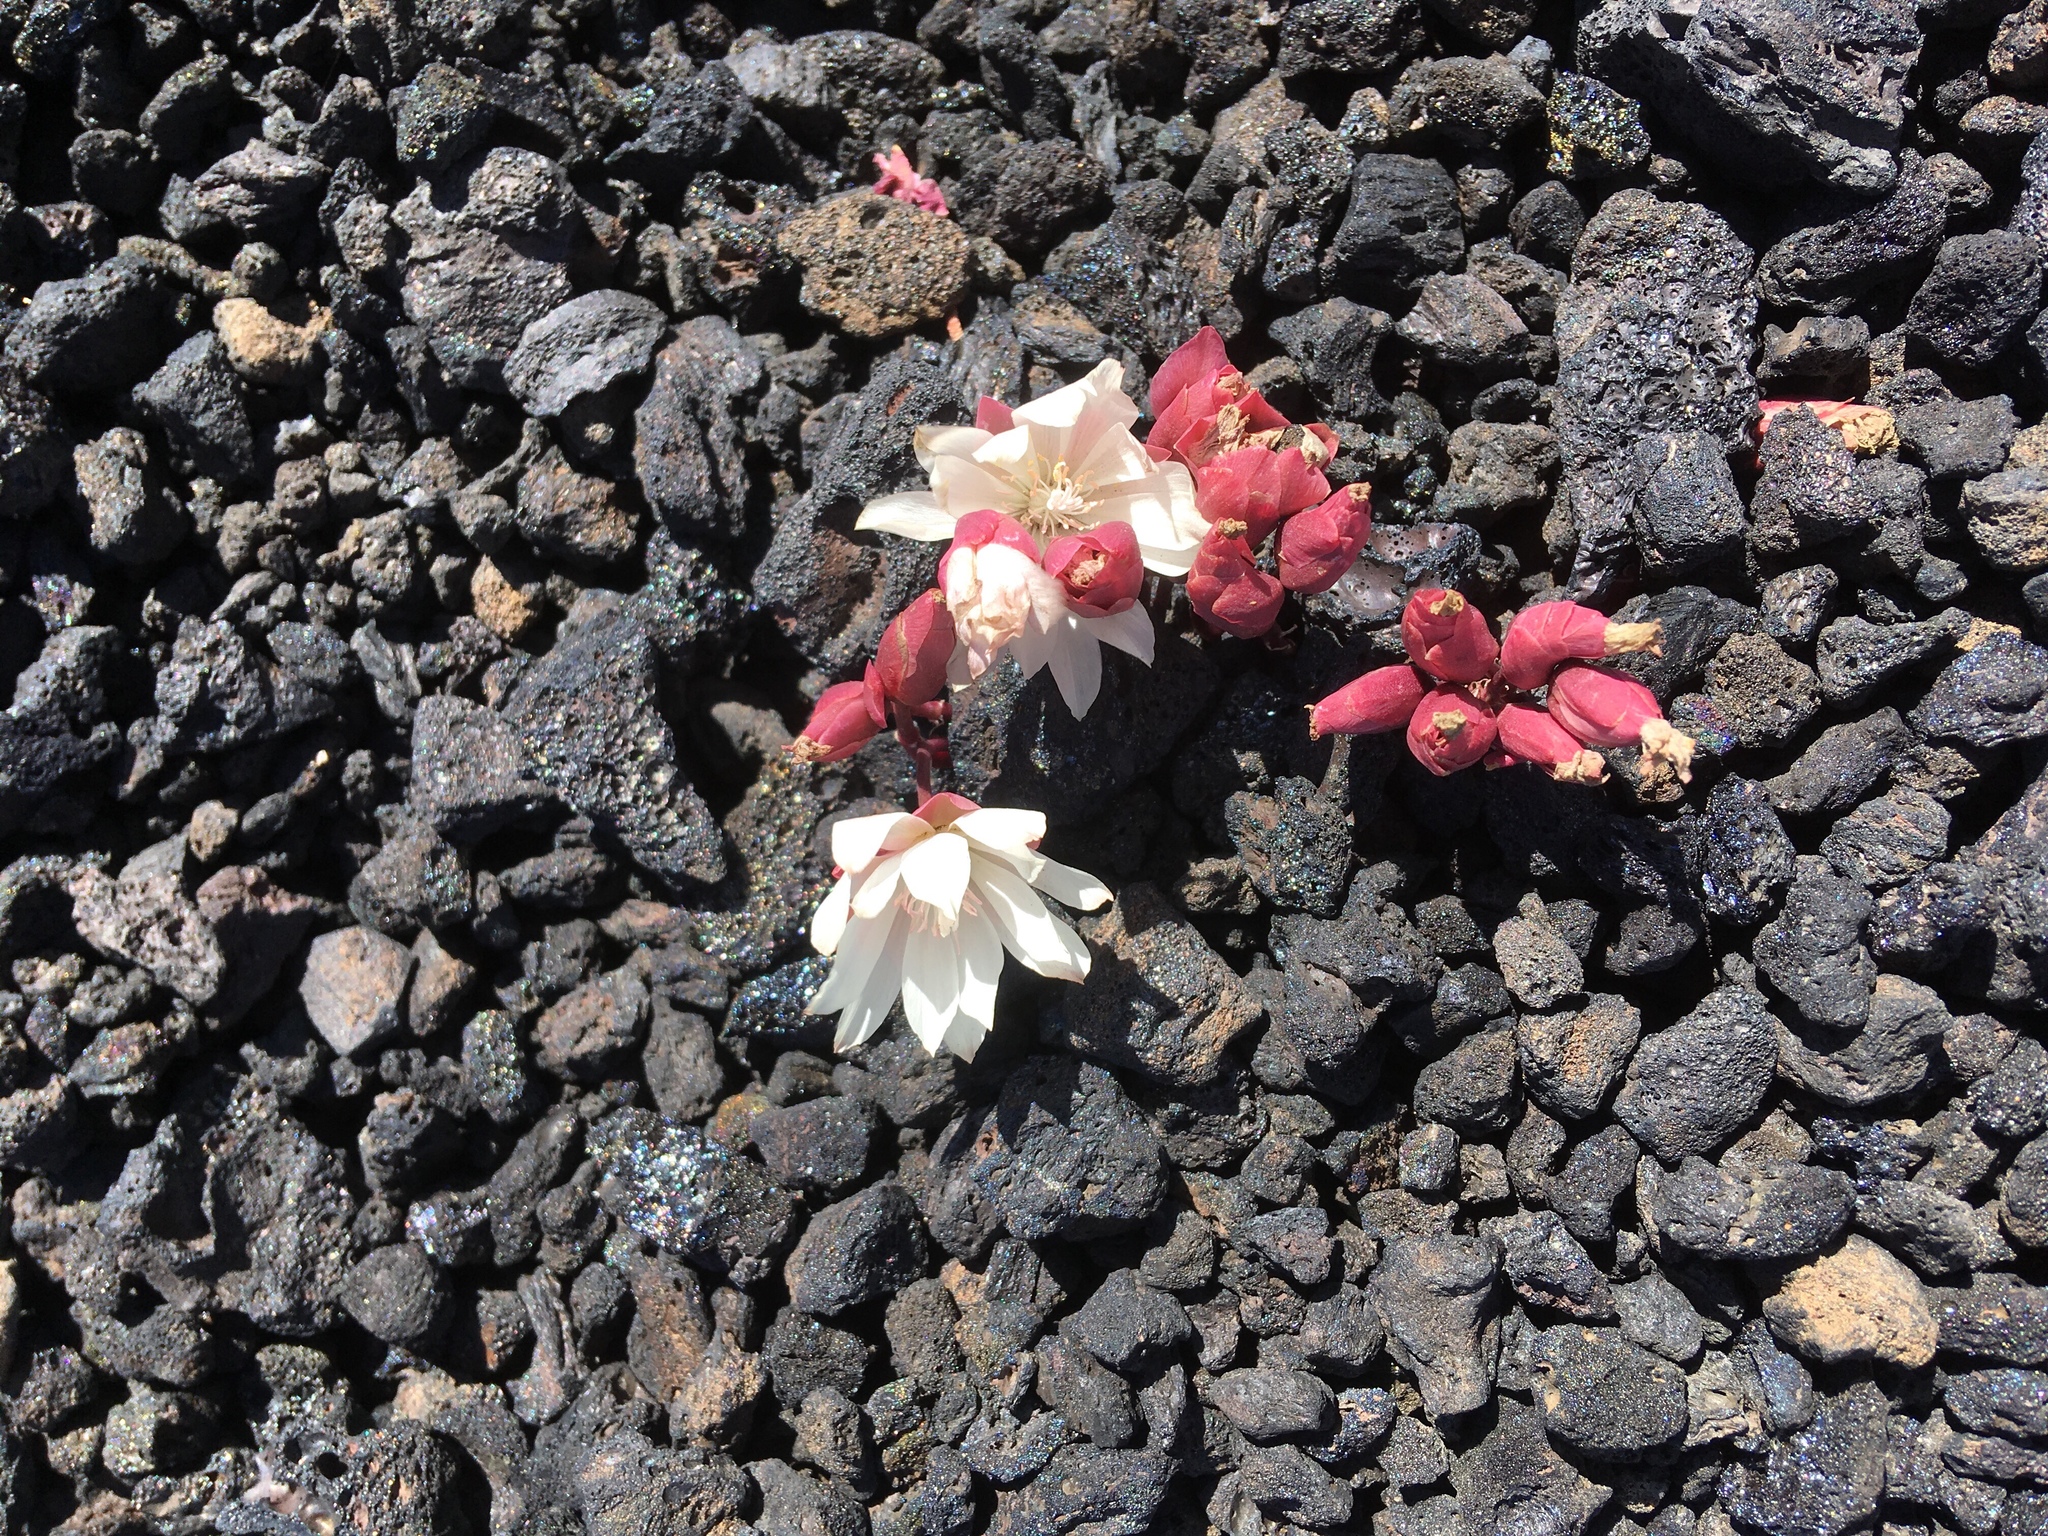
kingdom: Plantae
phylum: Tracheophyta
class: Magnoliopsida
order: Caryophyllales
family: Montiaceae
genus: Lewisia
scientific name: Lewisia rediviva
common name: Bitter-root
